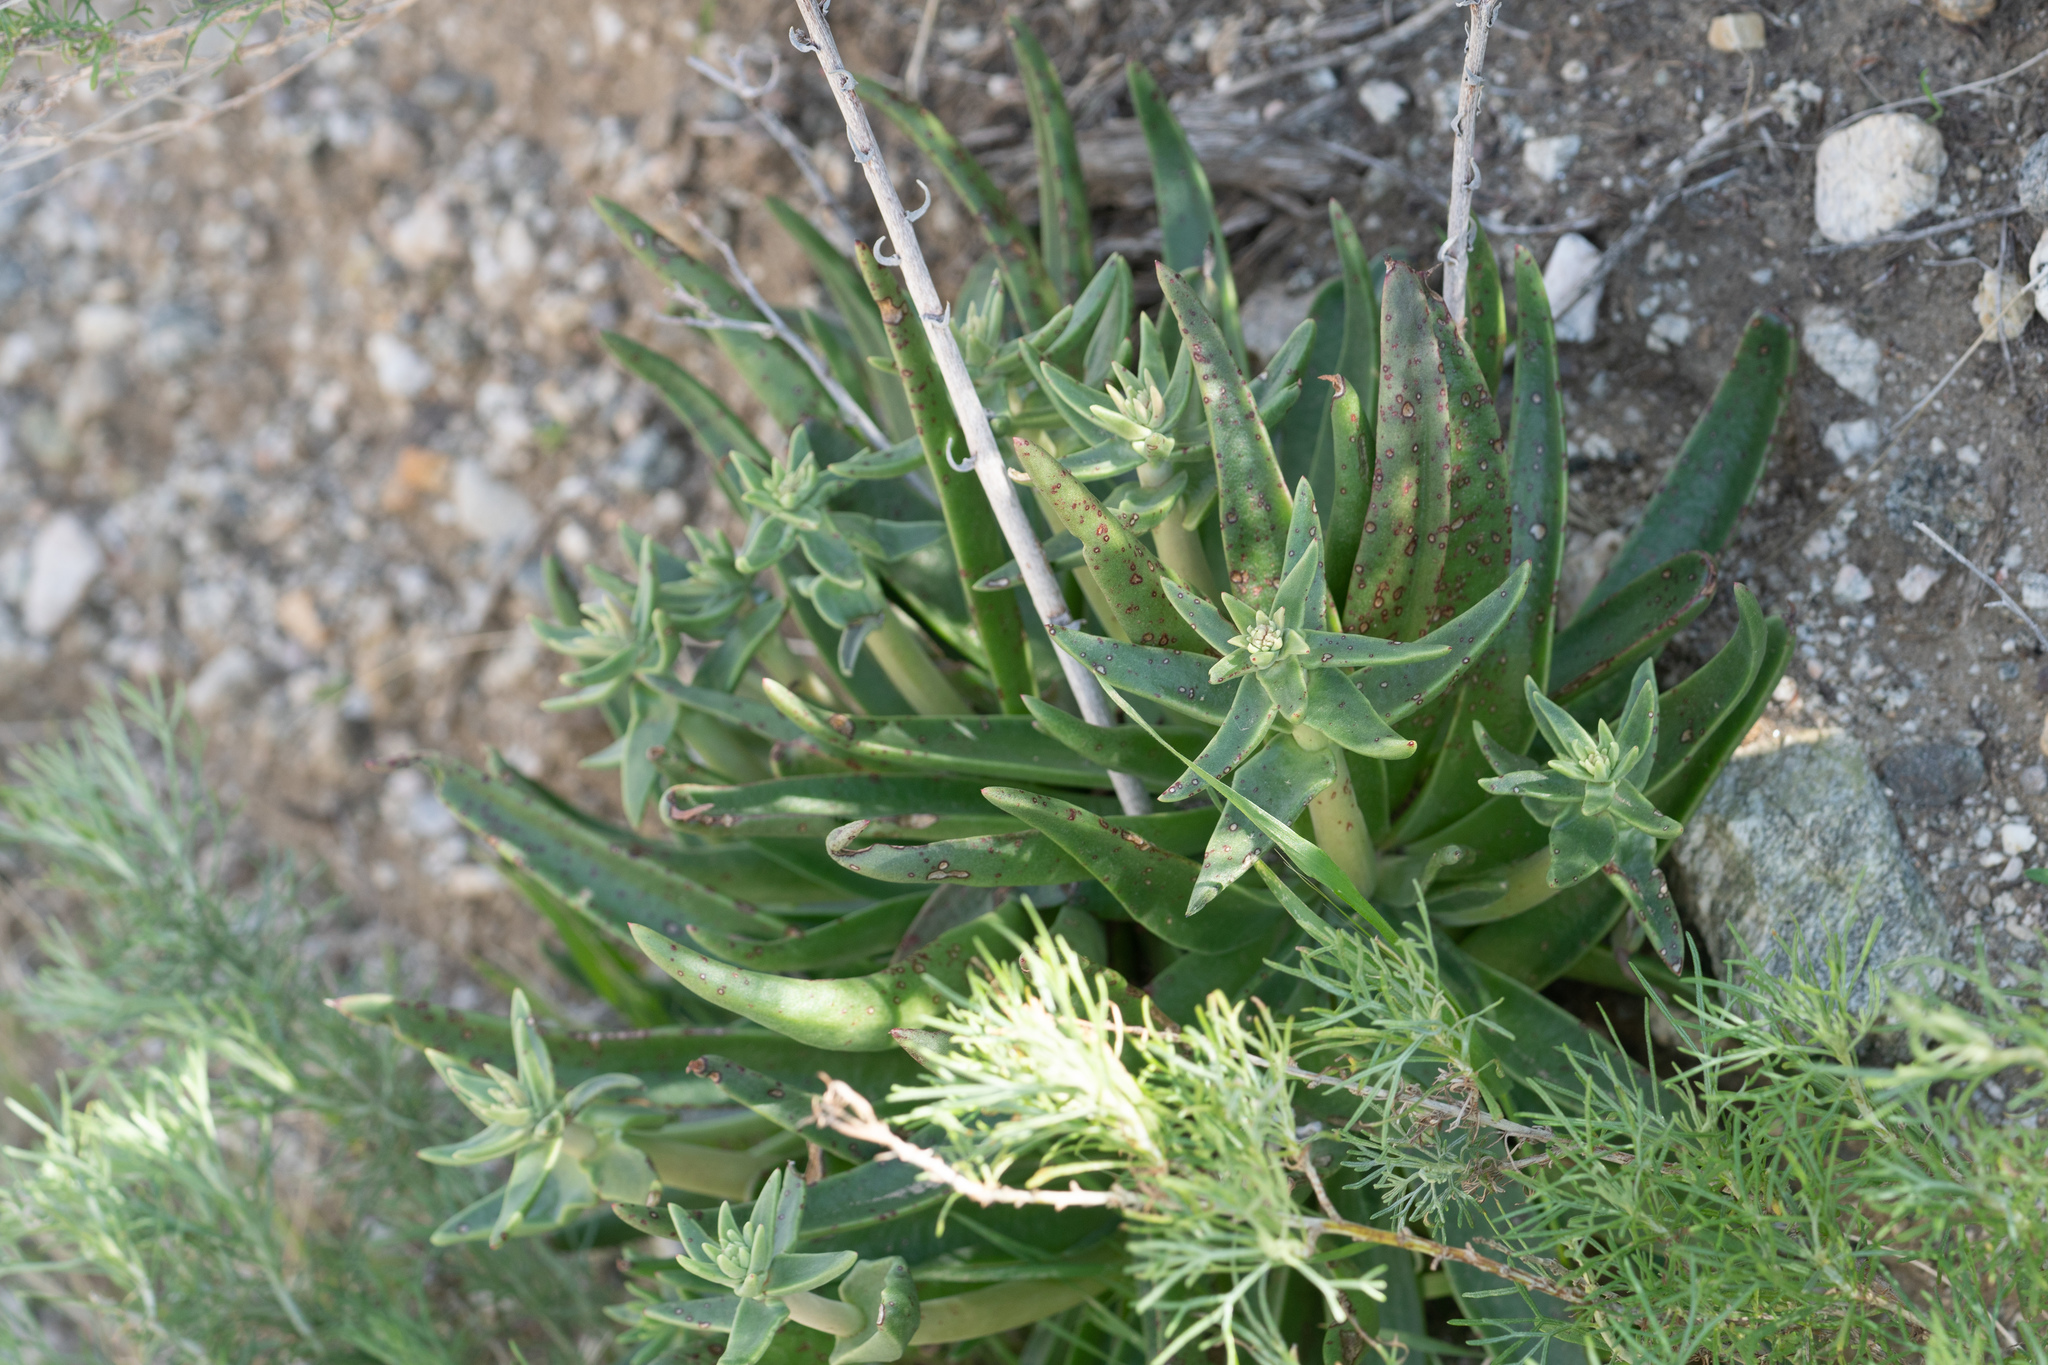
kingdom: Plantae
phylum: Tracheophyta
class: Magnoliopsida
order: Saxifragales
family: Crassulaceae
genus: Dudleya
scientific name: Dudleya saxosa
